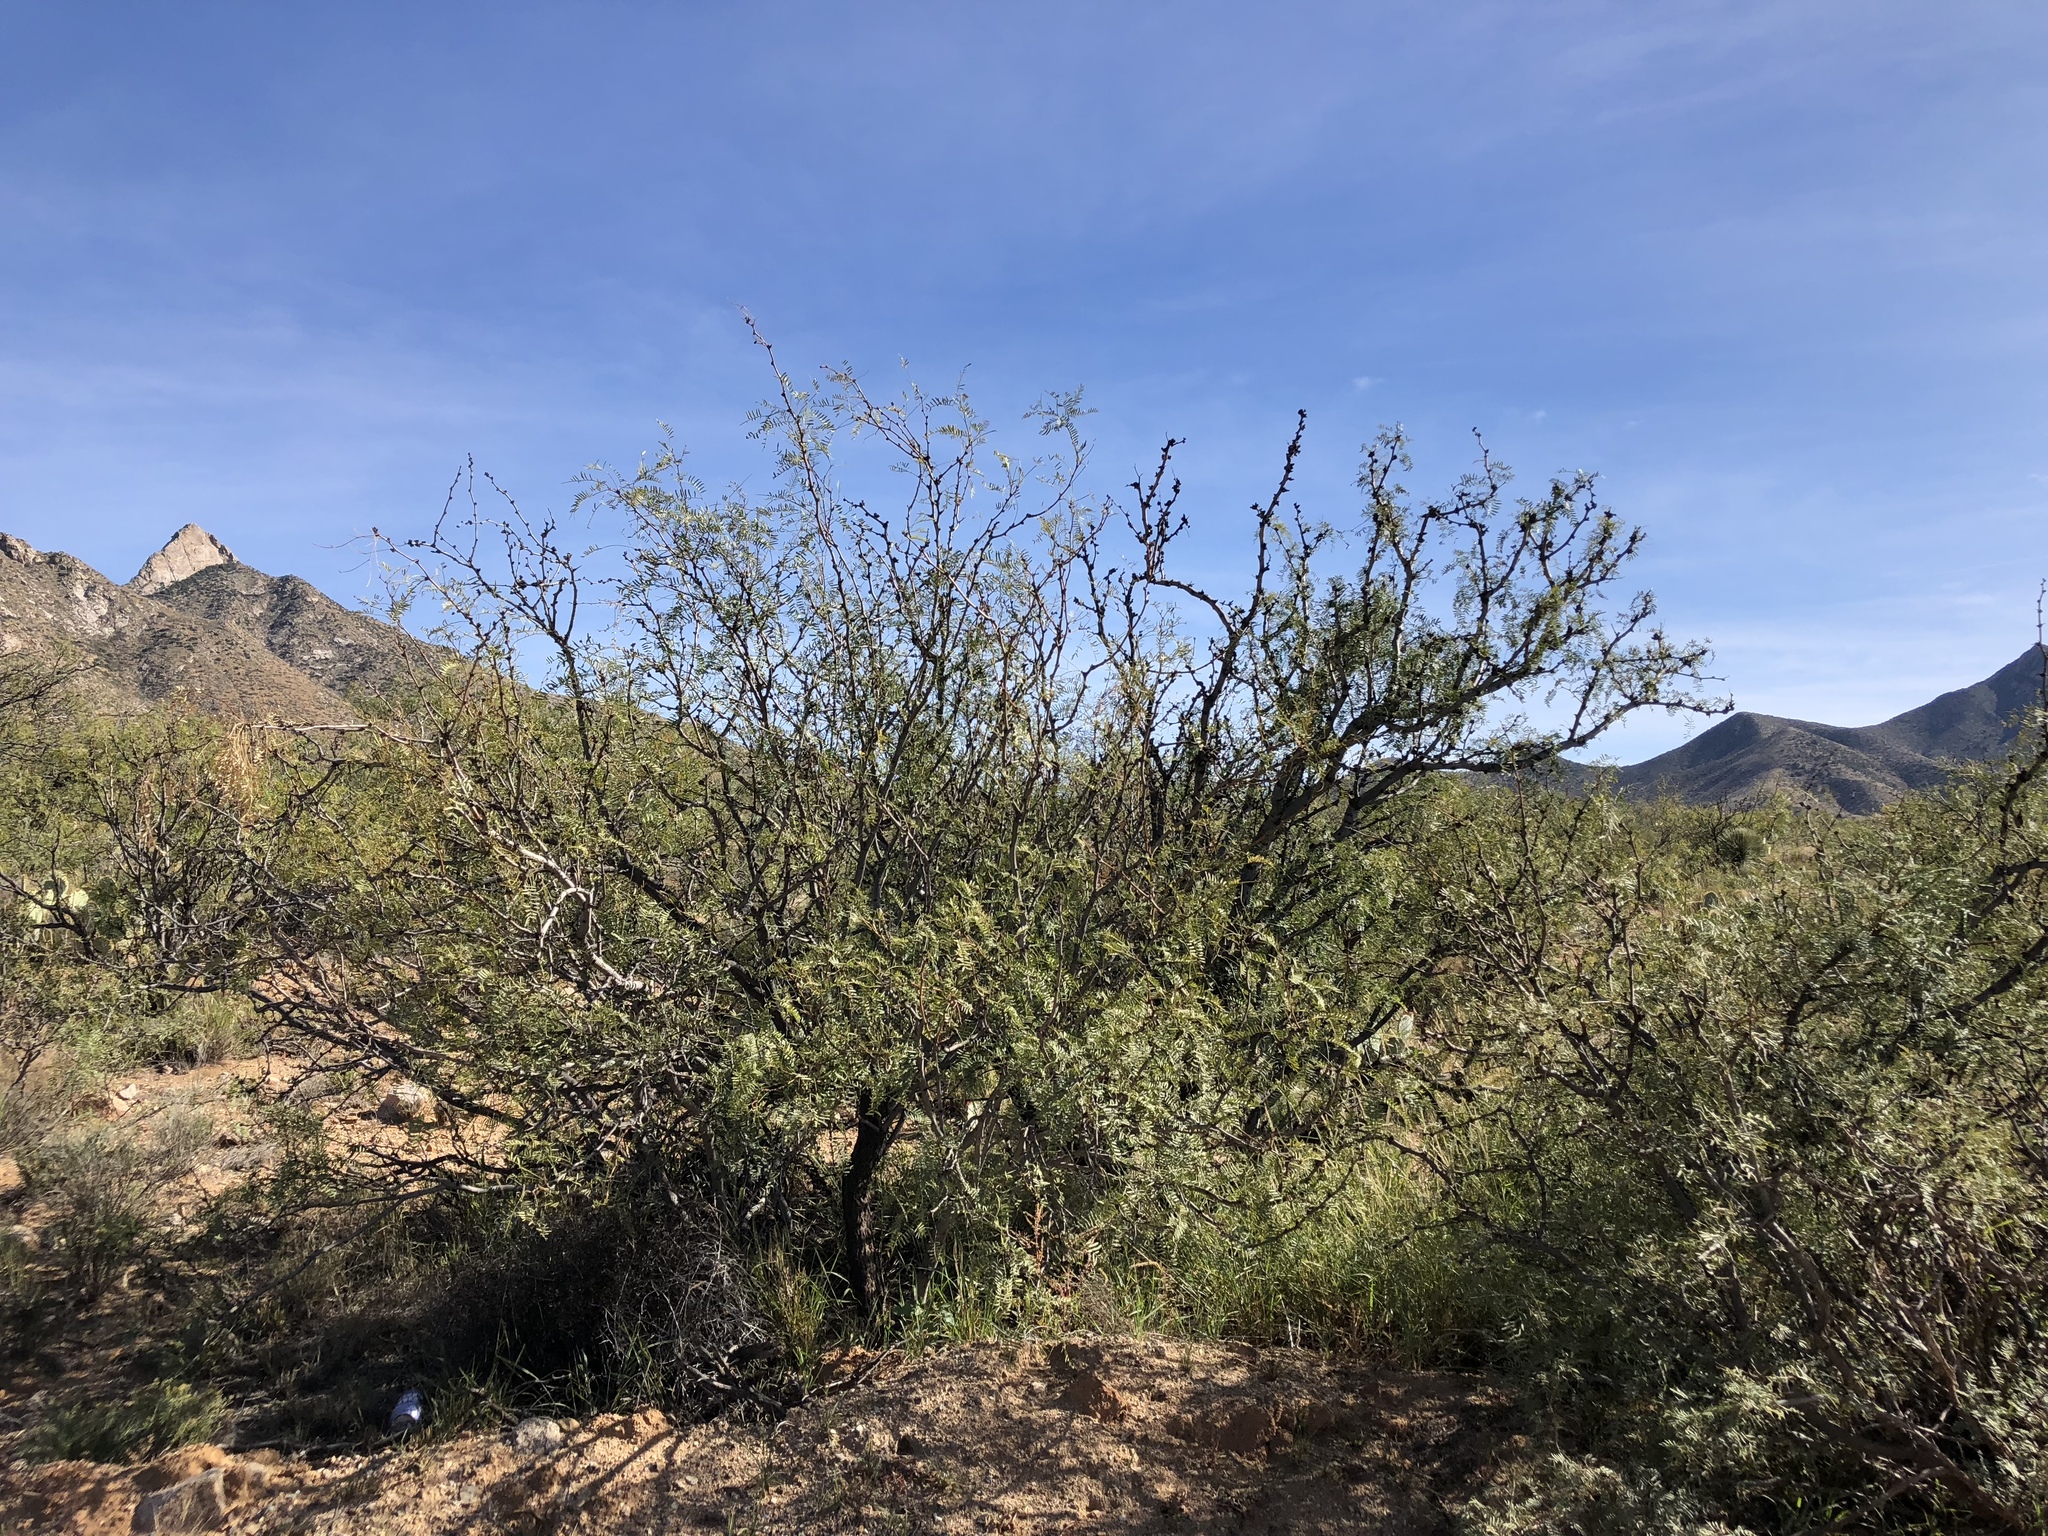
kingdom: Plantae
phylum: Tracheophyta
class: Magnoliopsida
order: Fabales
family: Fabaceae
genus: Prosopis
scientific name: Prosopis glandulosa
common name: Honey mesquite
